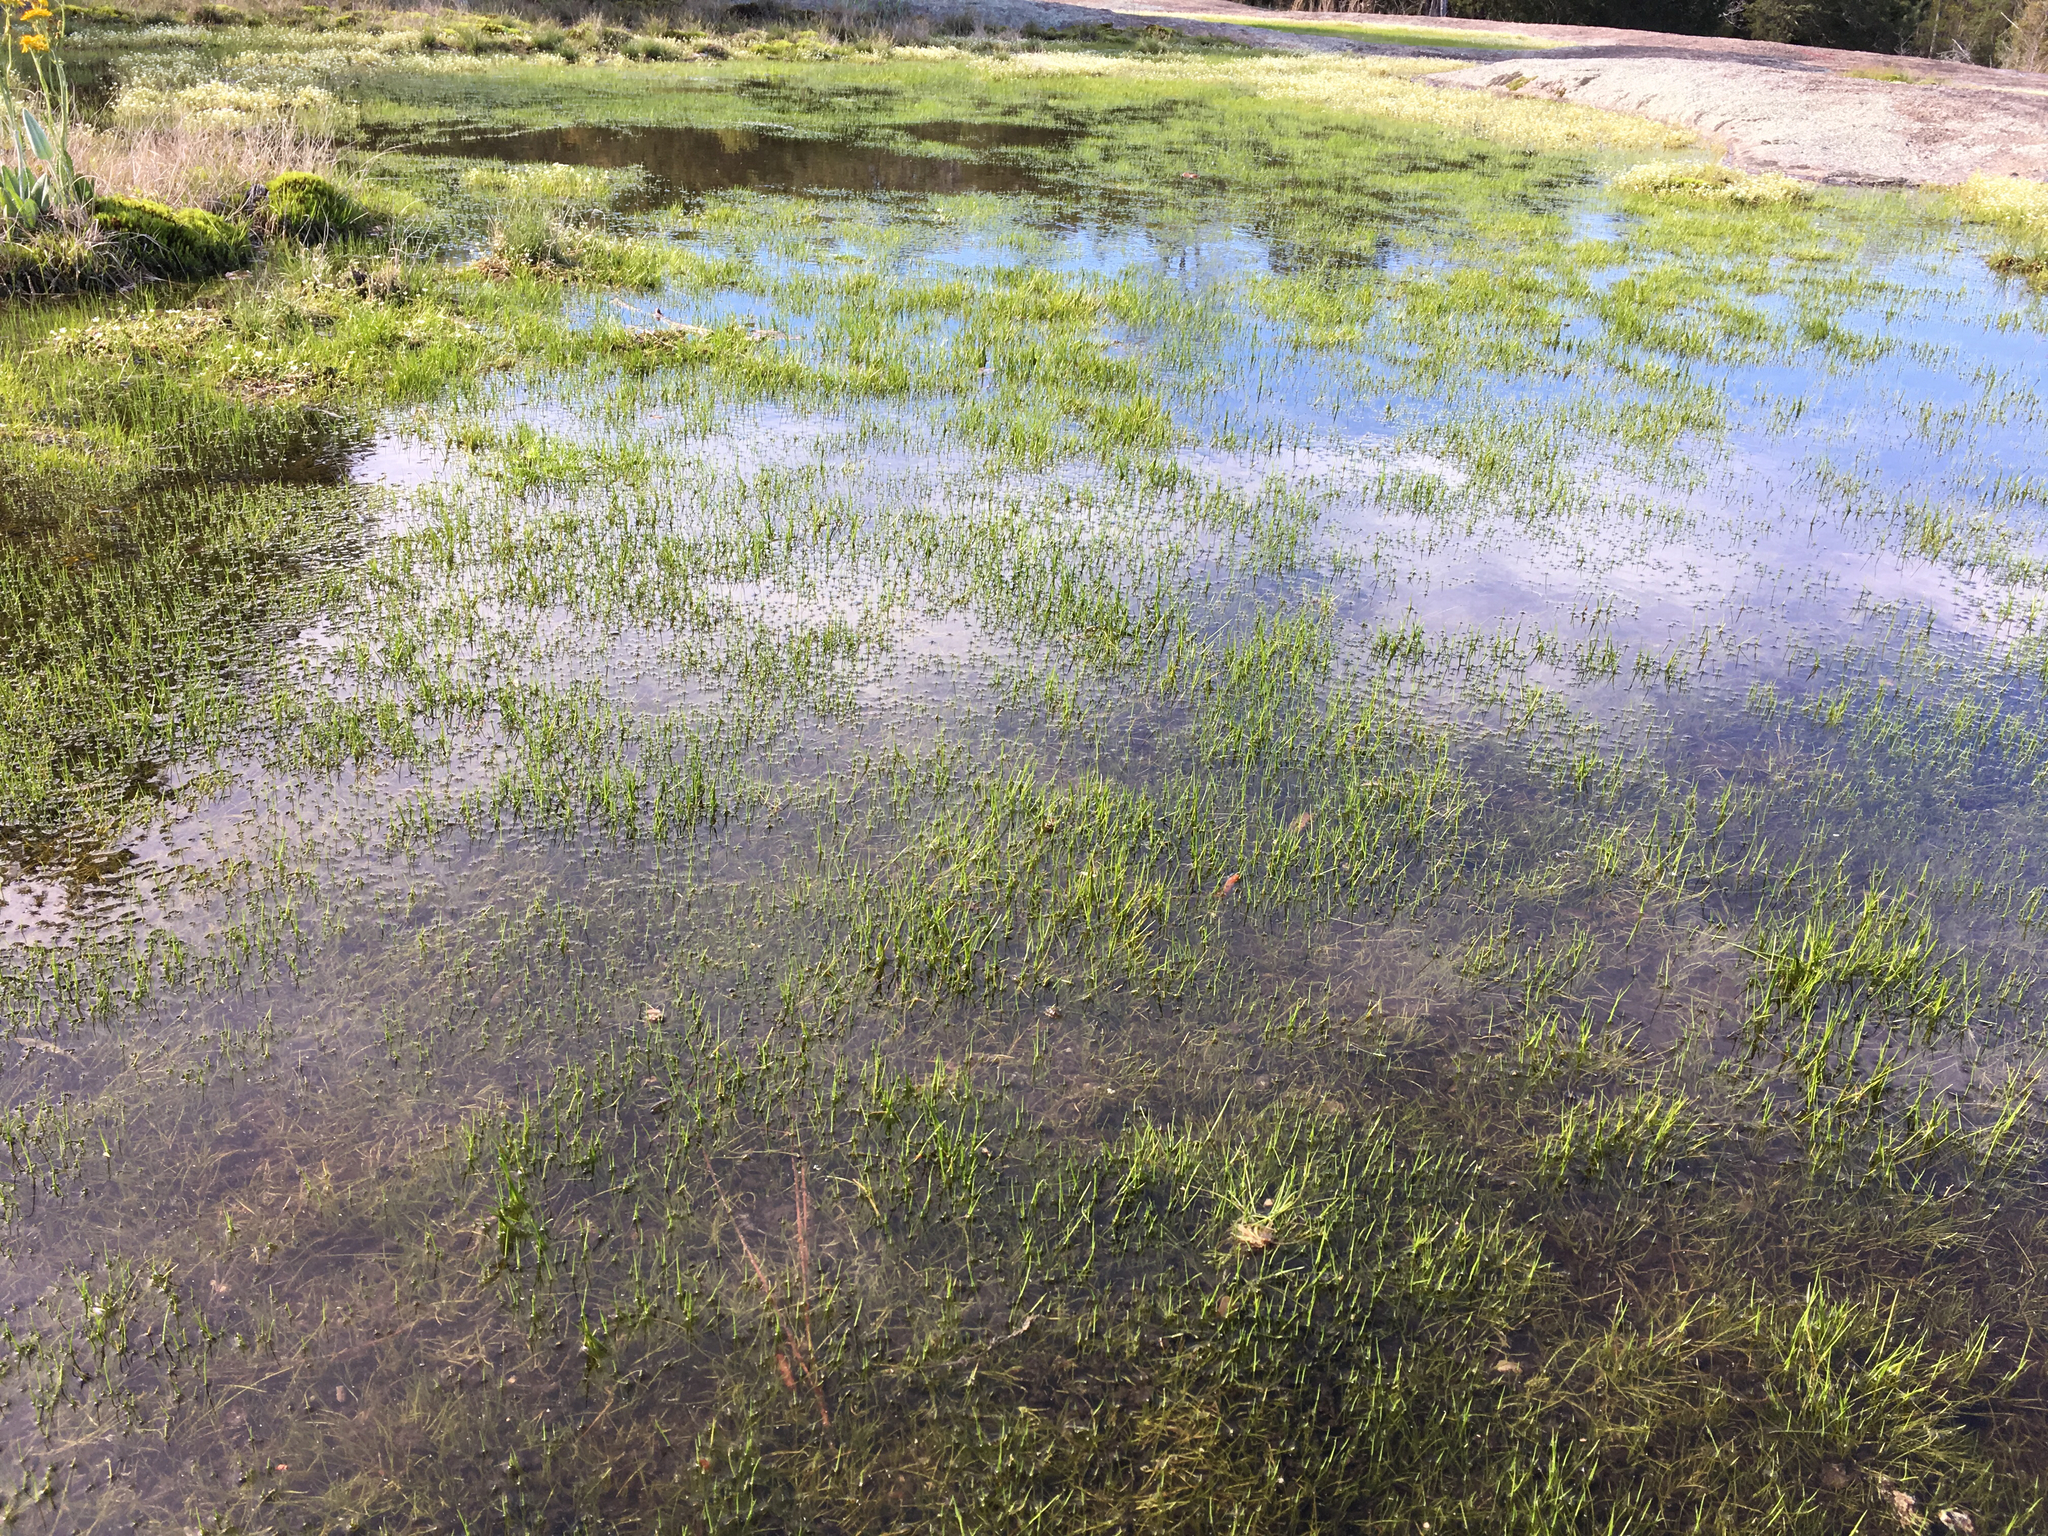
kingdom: Plantae
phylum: Tracheophyta
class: Lycopodiopsida
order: Isoetales
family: Isoetaceae
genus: Isoetes
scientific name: Isoetes melanospora
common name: Black-spore quillwort
